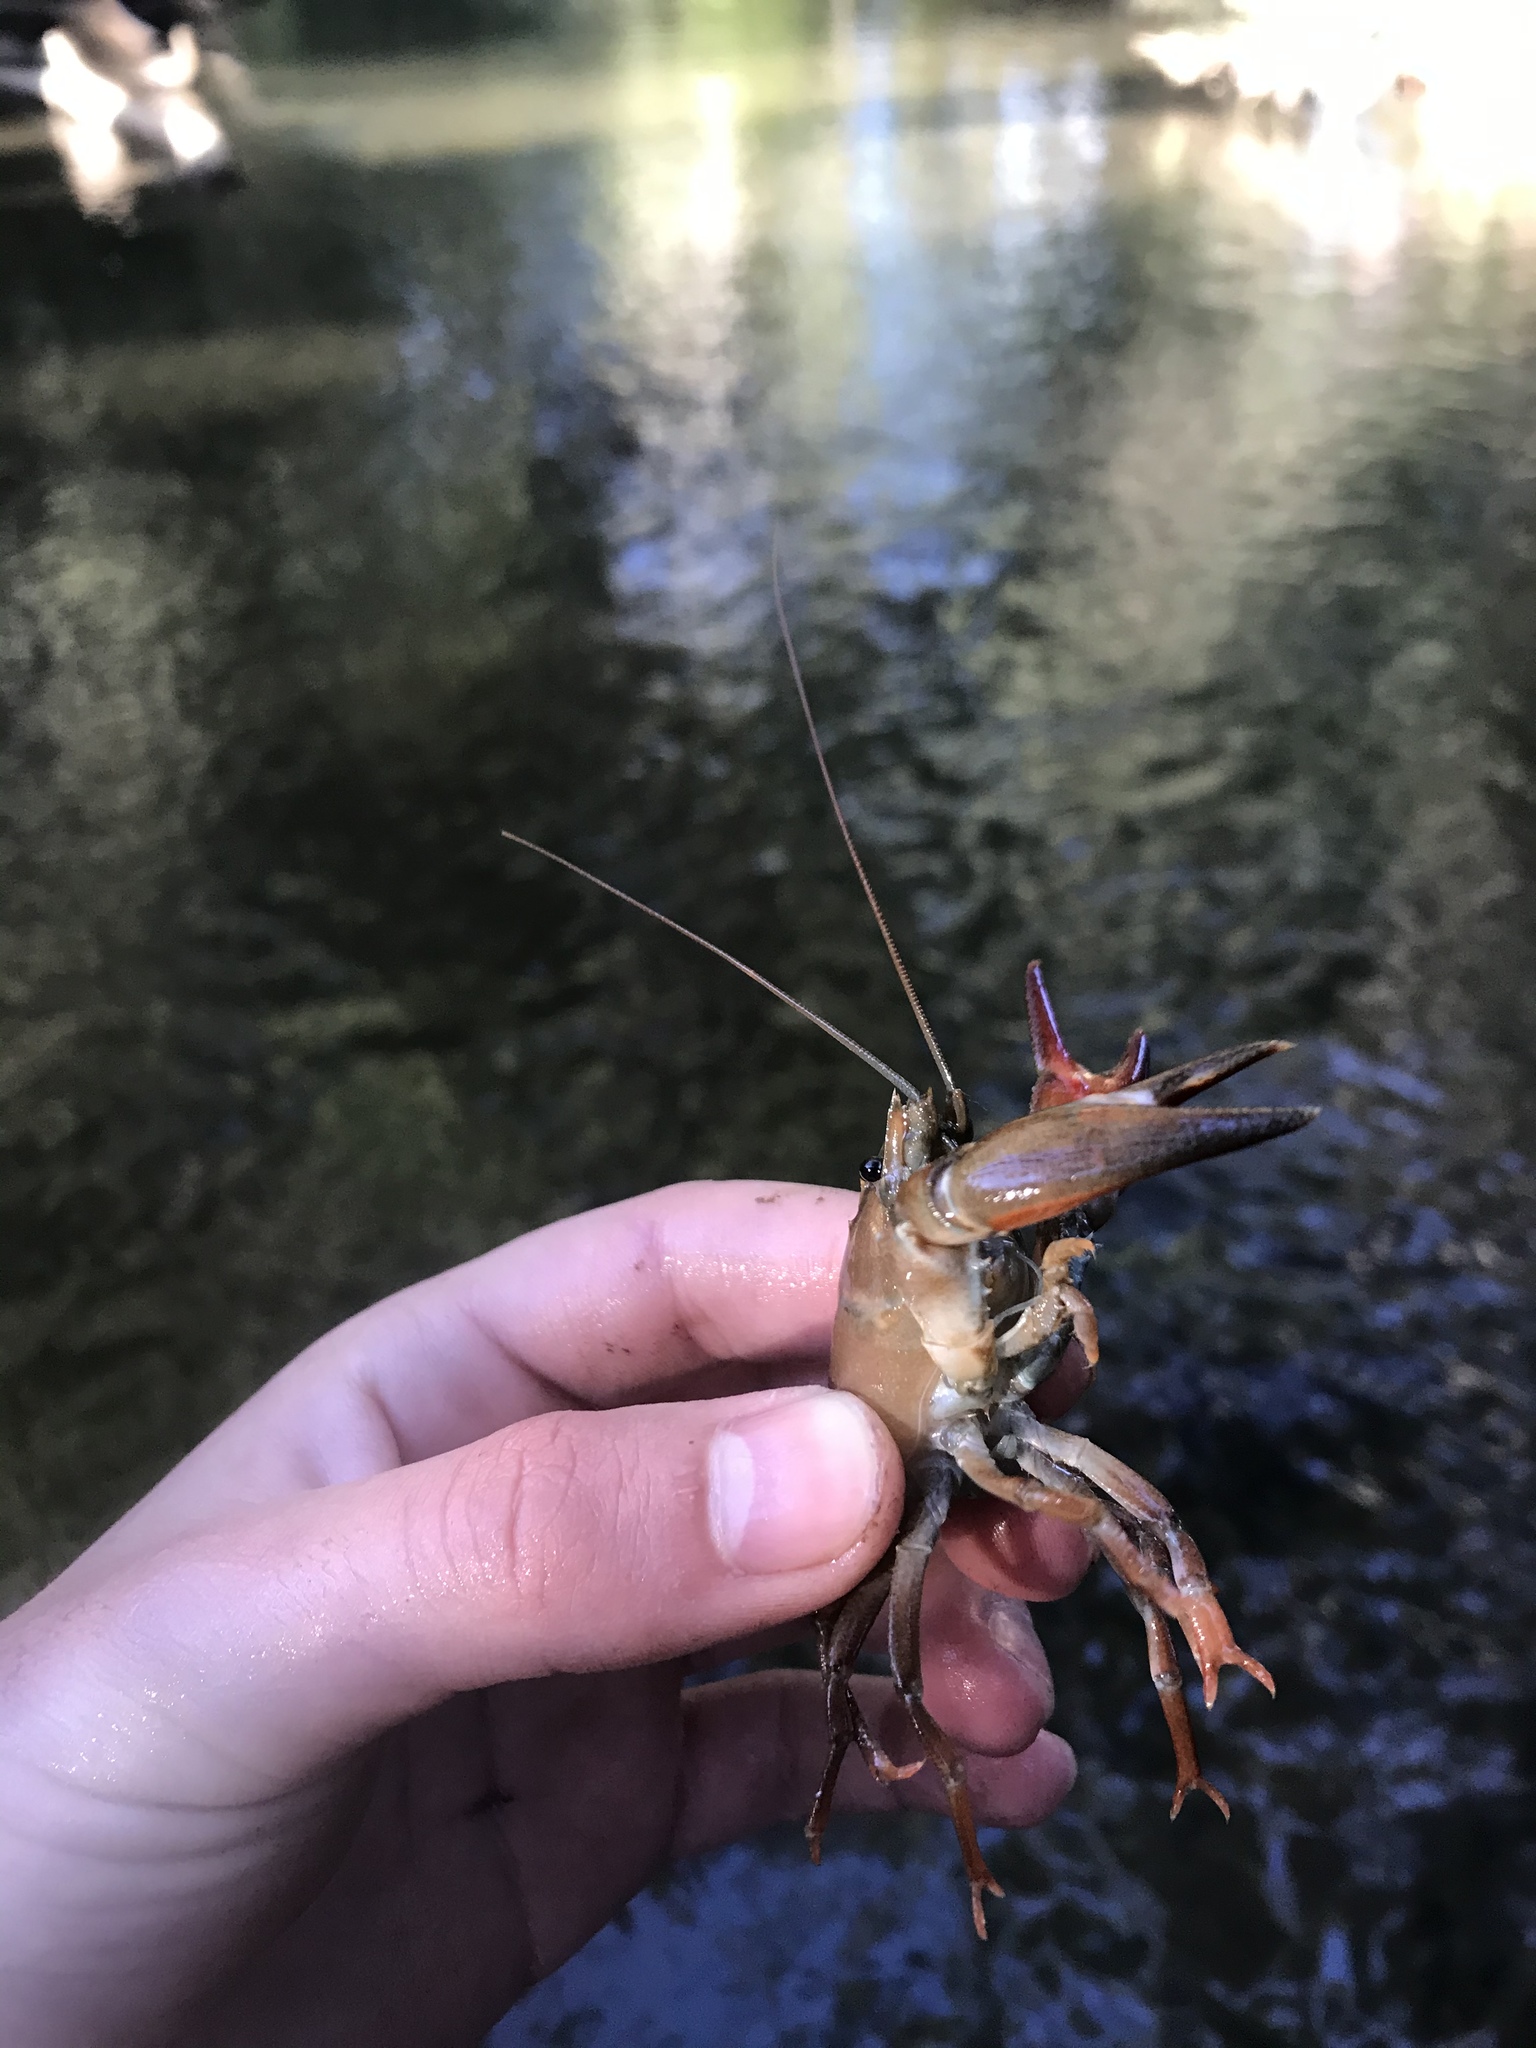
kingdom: Animalia
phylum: Arthropoda
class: Malacostraca
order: Decapoda
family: Astacidae
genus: Pacifastacus
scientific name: Pacifastacus leniusculus
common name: Signal crayfish
